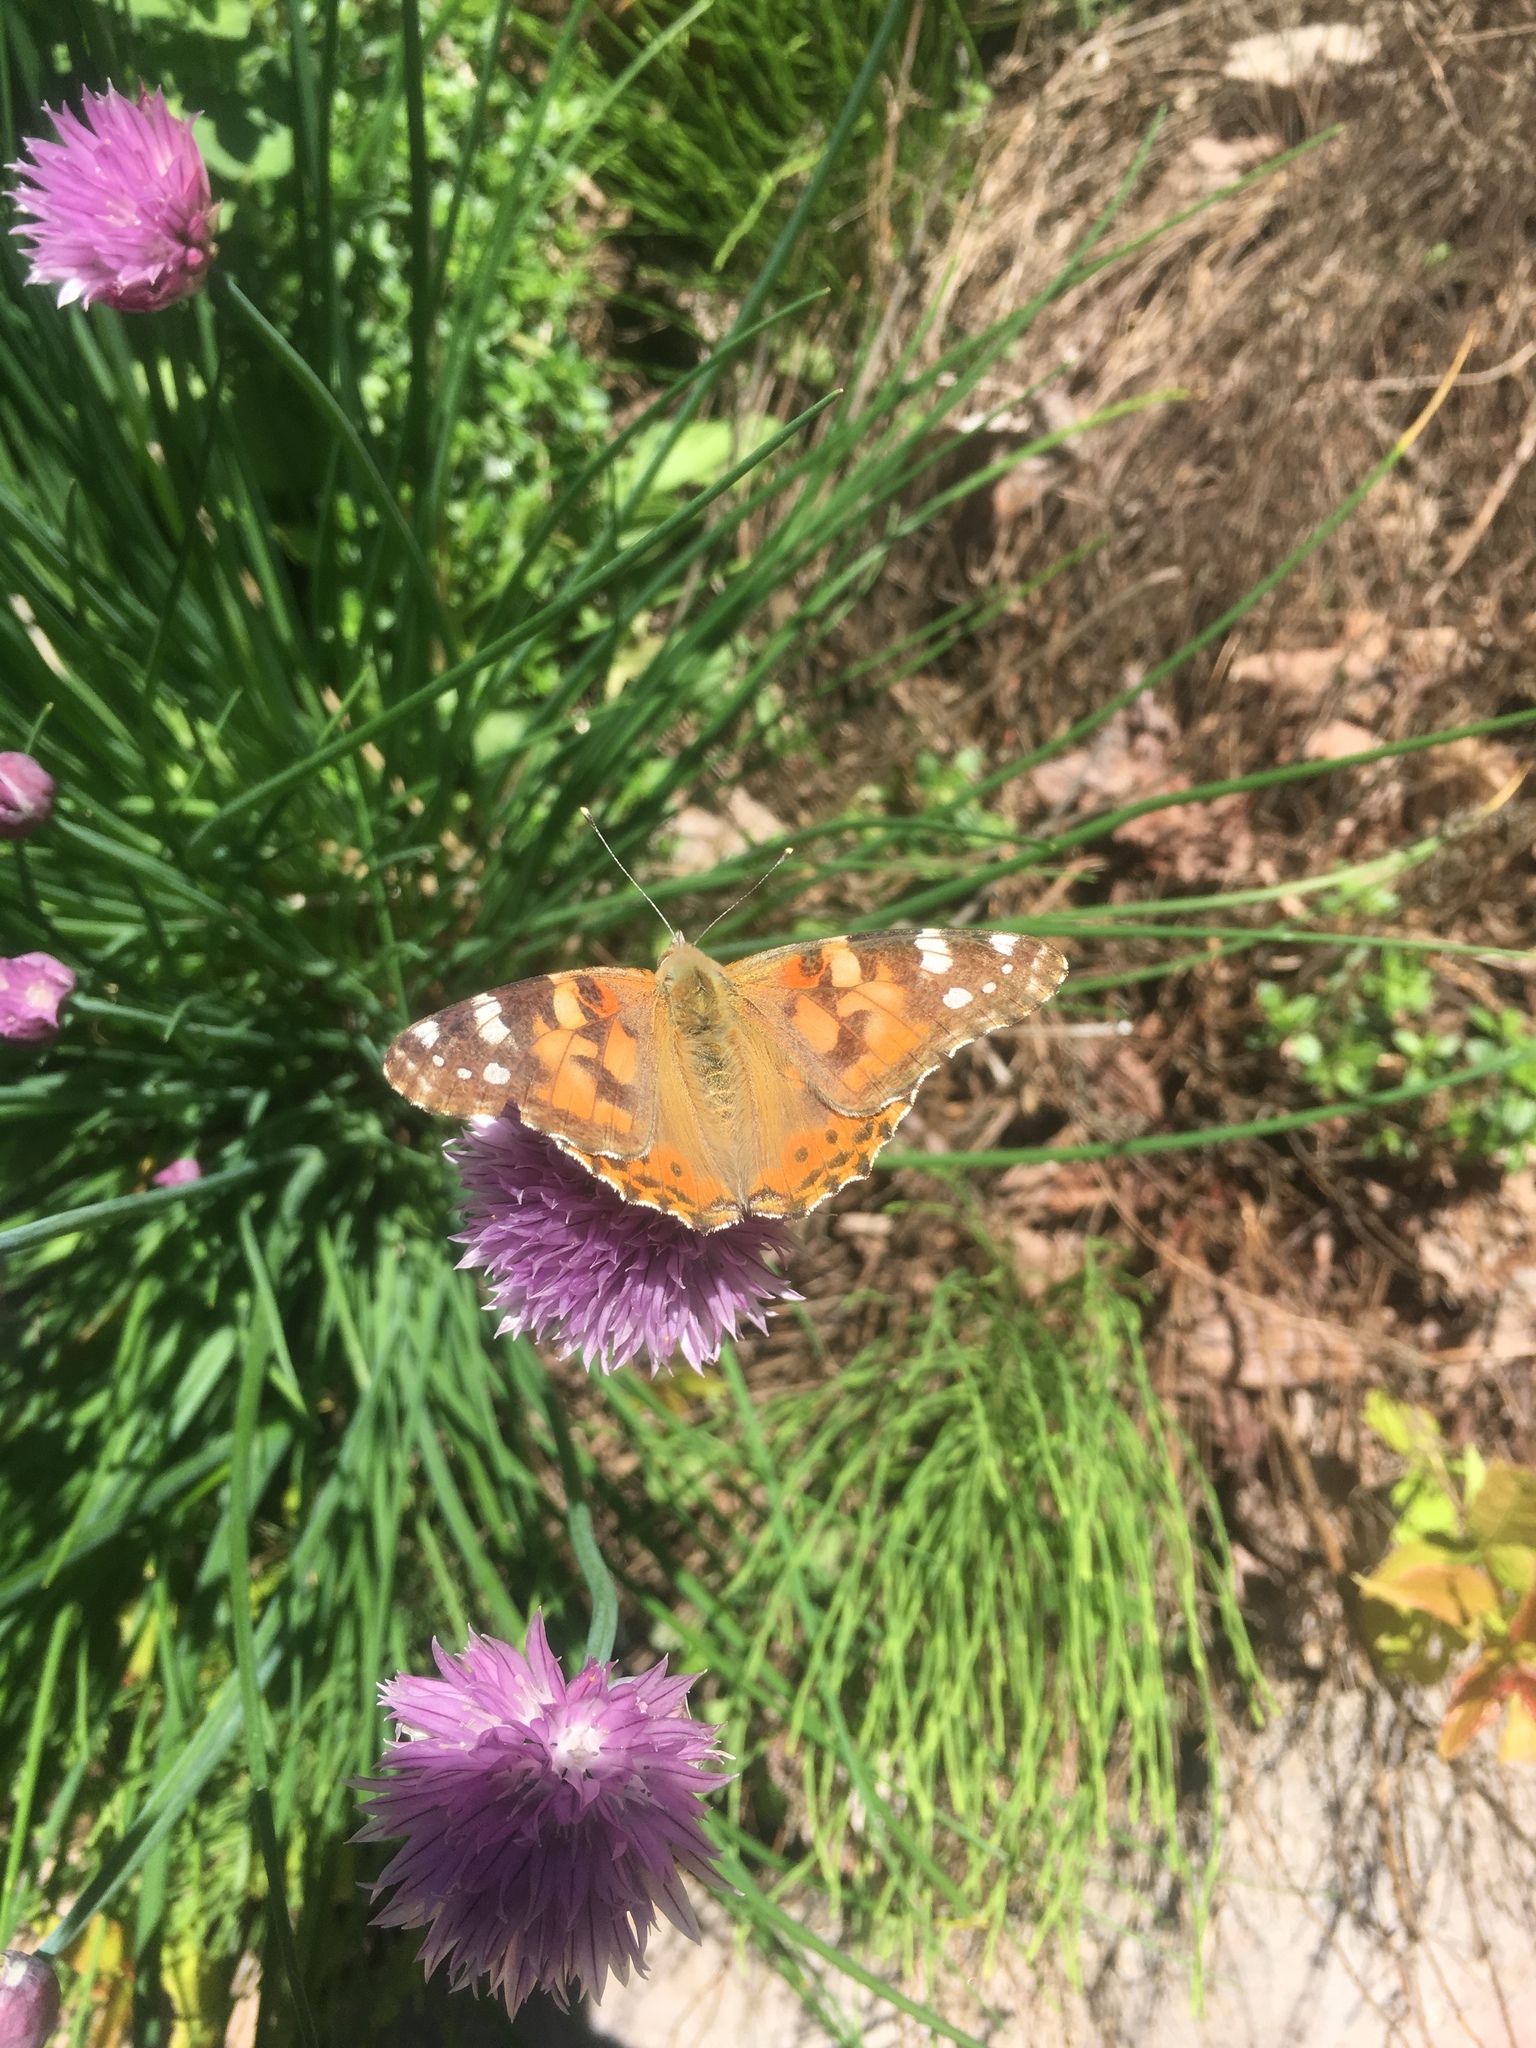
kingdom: Animalia
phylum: Arthropoda
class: Insecta
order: Lepidoptera
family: Nymphalidae
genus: Vanessa
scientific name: Vanessa cardui
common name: Painted lady
